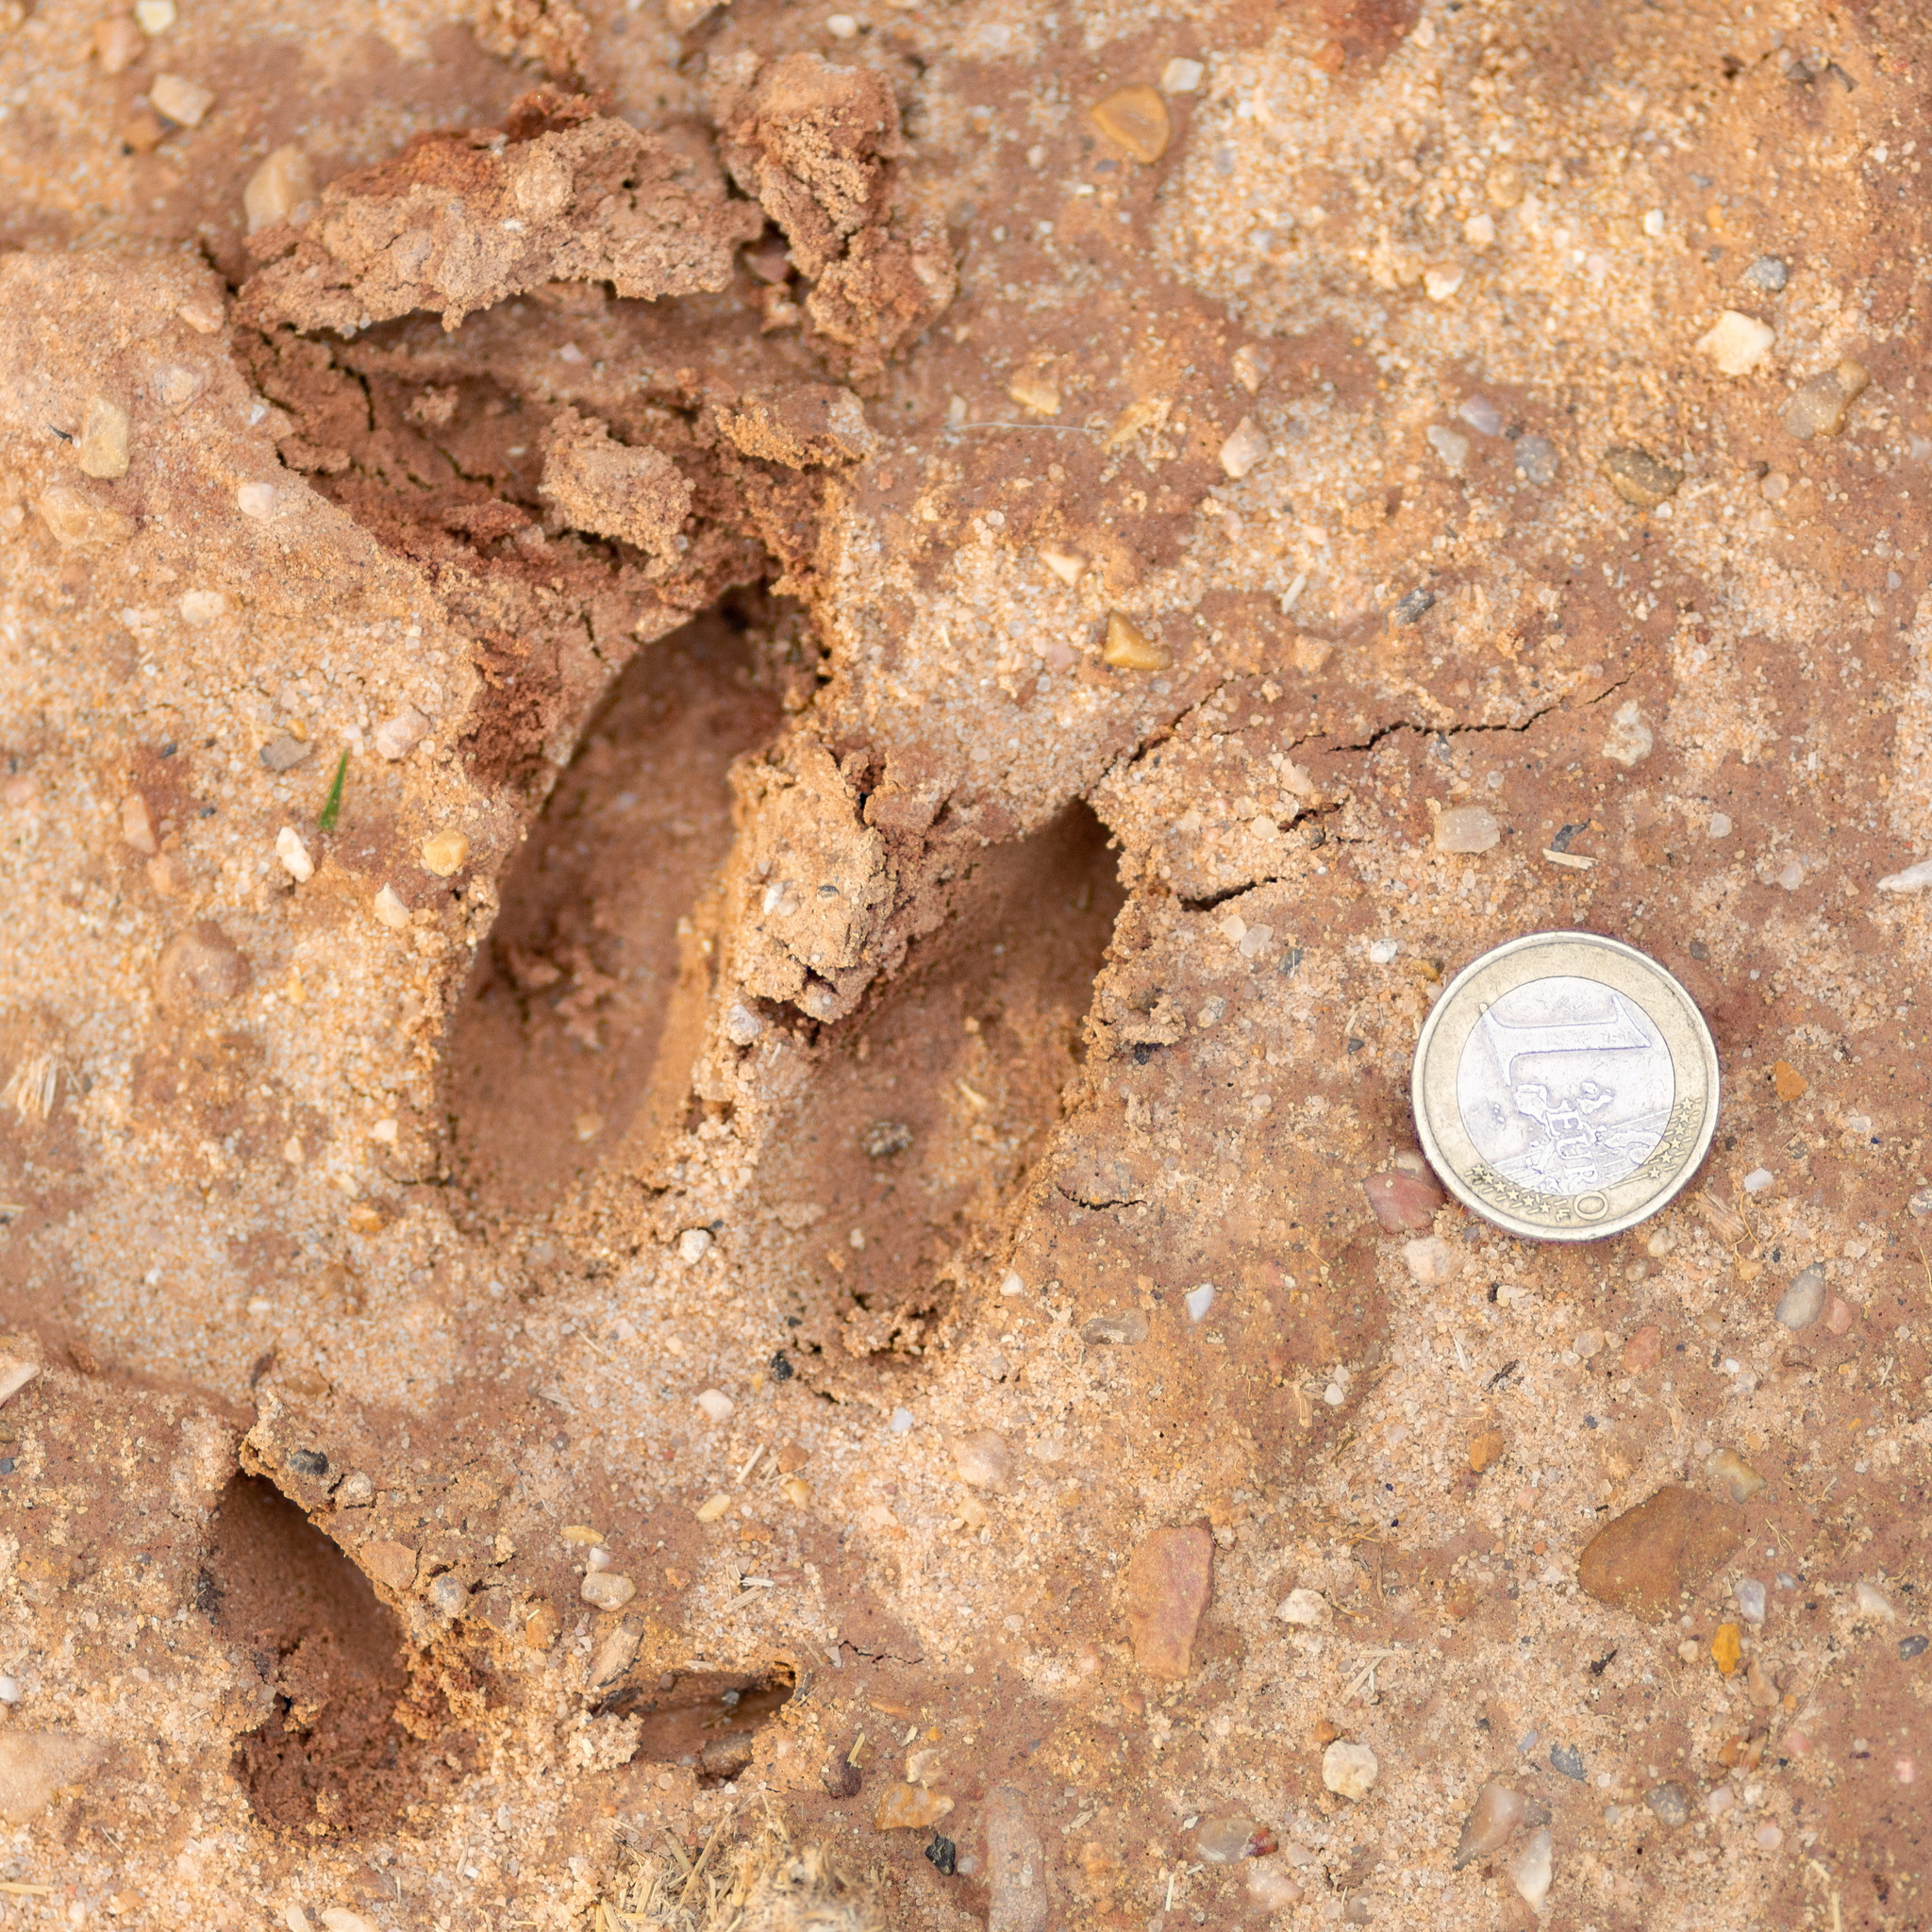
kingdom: Animalia
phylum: Chordata
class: Mammalia
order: Artiodactyla
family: Cervidae
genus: Capreolus
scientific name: Capreolus capreolus
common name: Western roe deer
